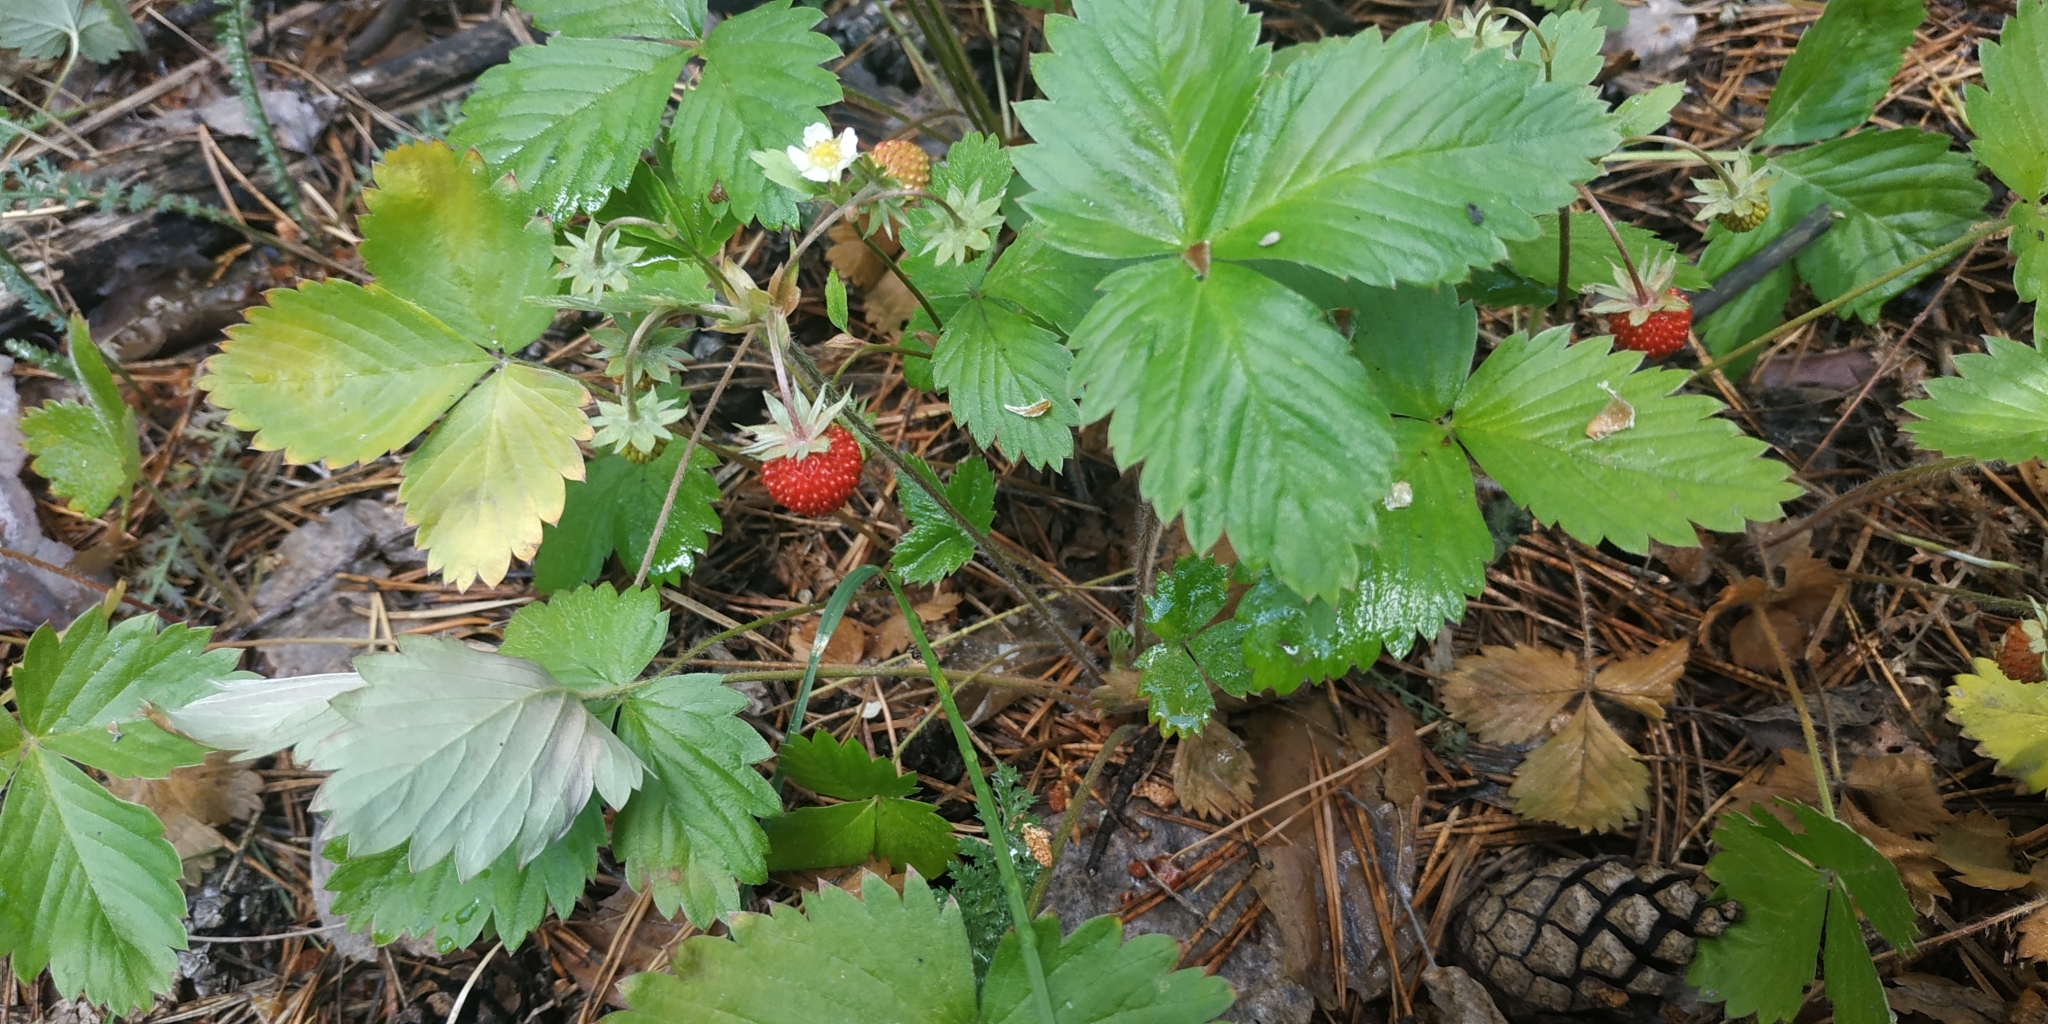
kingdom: Plantae
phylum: Tracheophyta
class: Magnoliopsida
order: Rosales
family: Rosaceae
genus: Fragaria
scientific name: Fragaria vesca
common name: Wild strawberry
